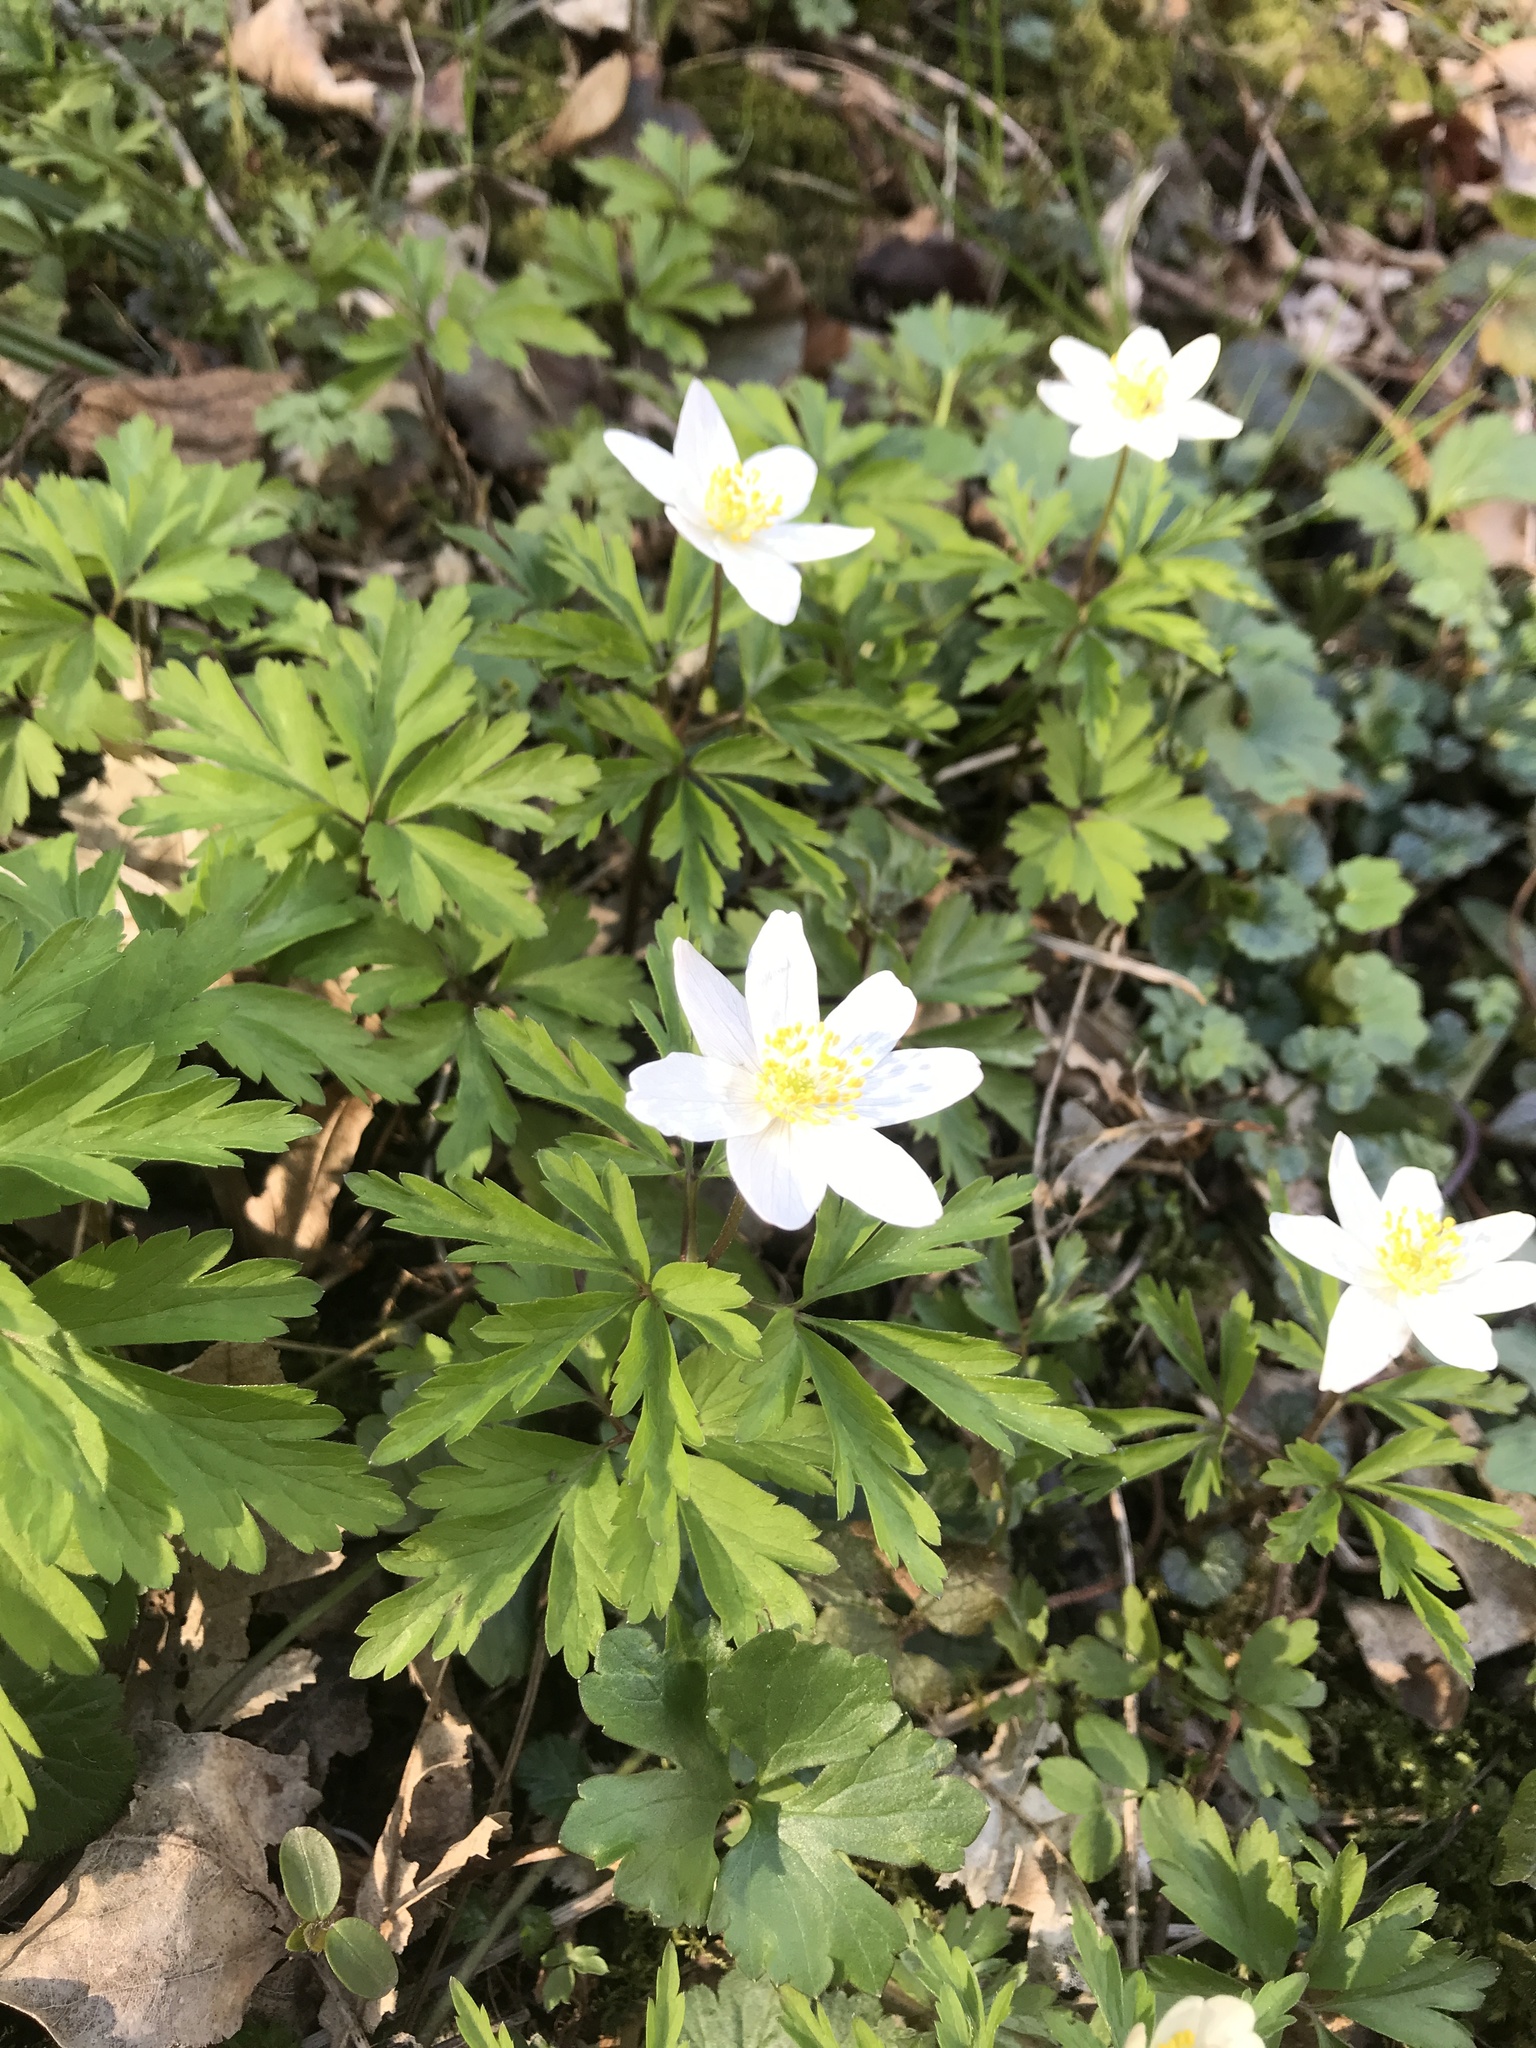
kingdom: Plantae
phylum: Tracheophyta
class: Magnoliopsida
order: Ranunculales
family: Ranunculaceae
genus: Anemone
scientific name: Anemone nemorosa
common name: Wood anemone
